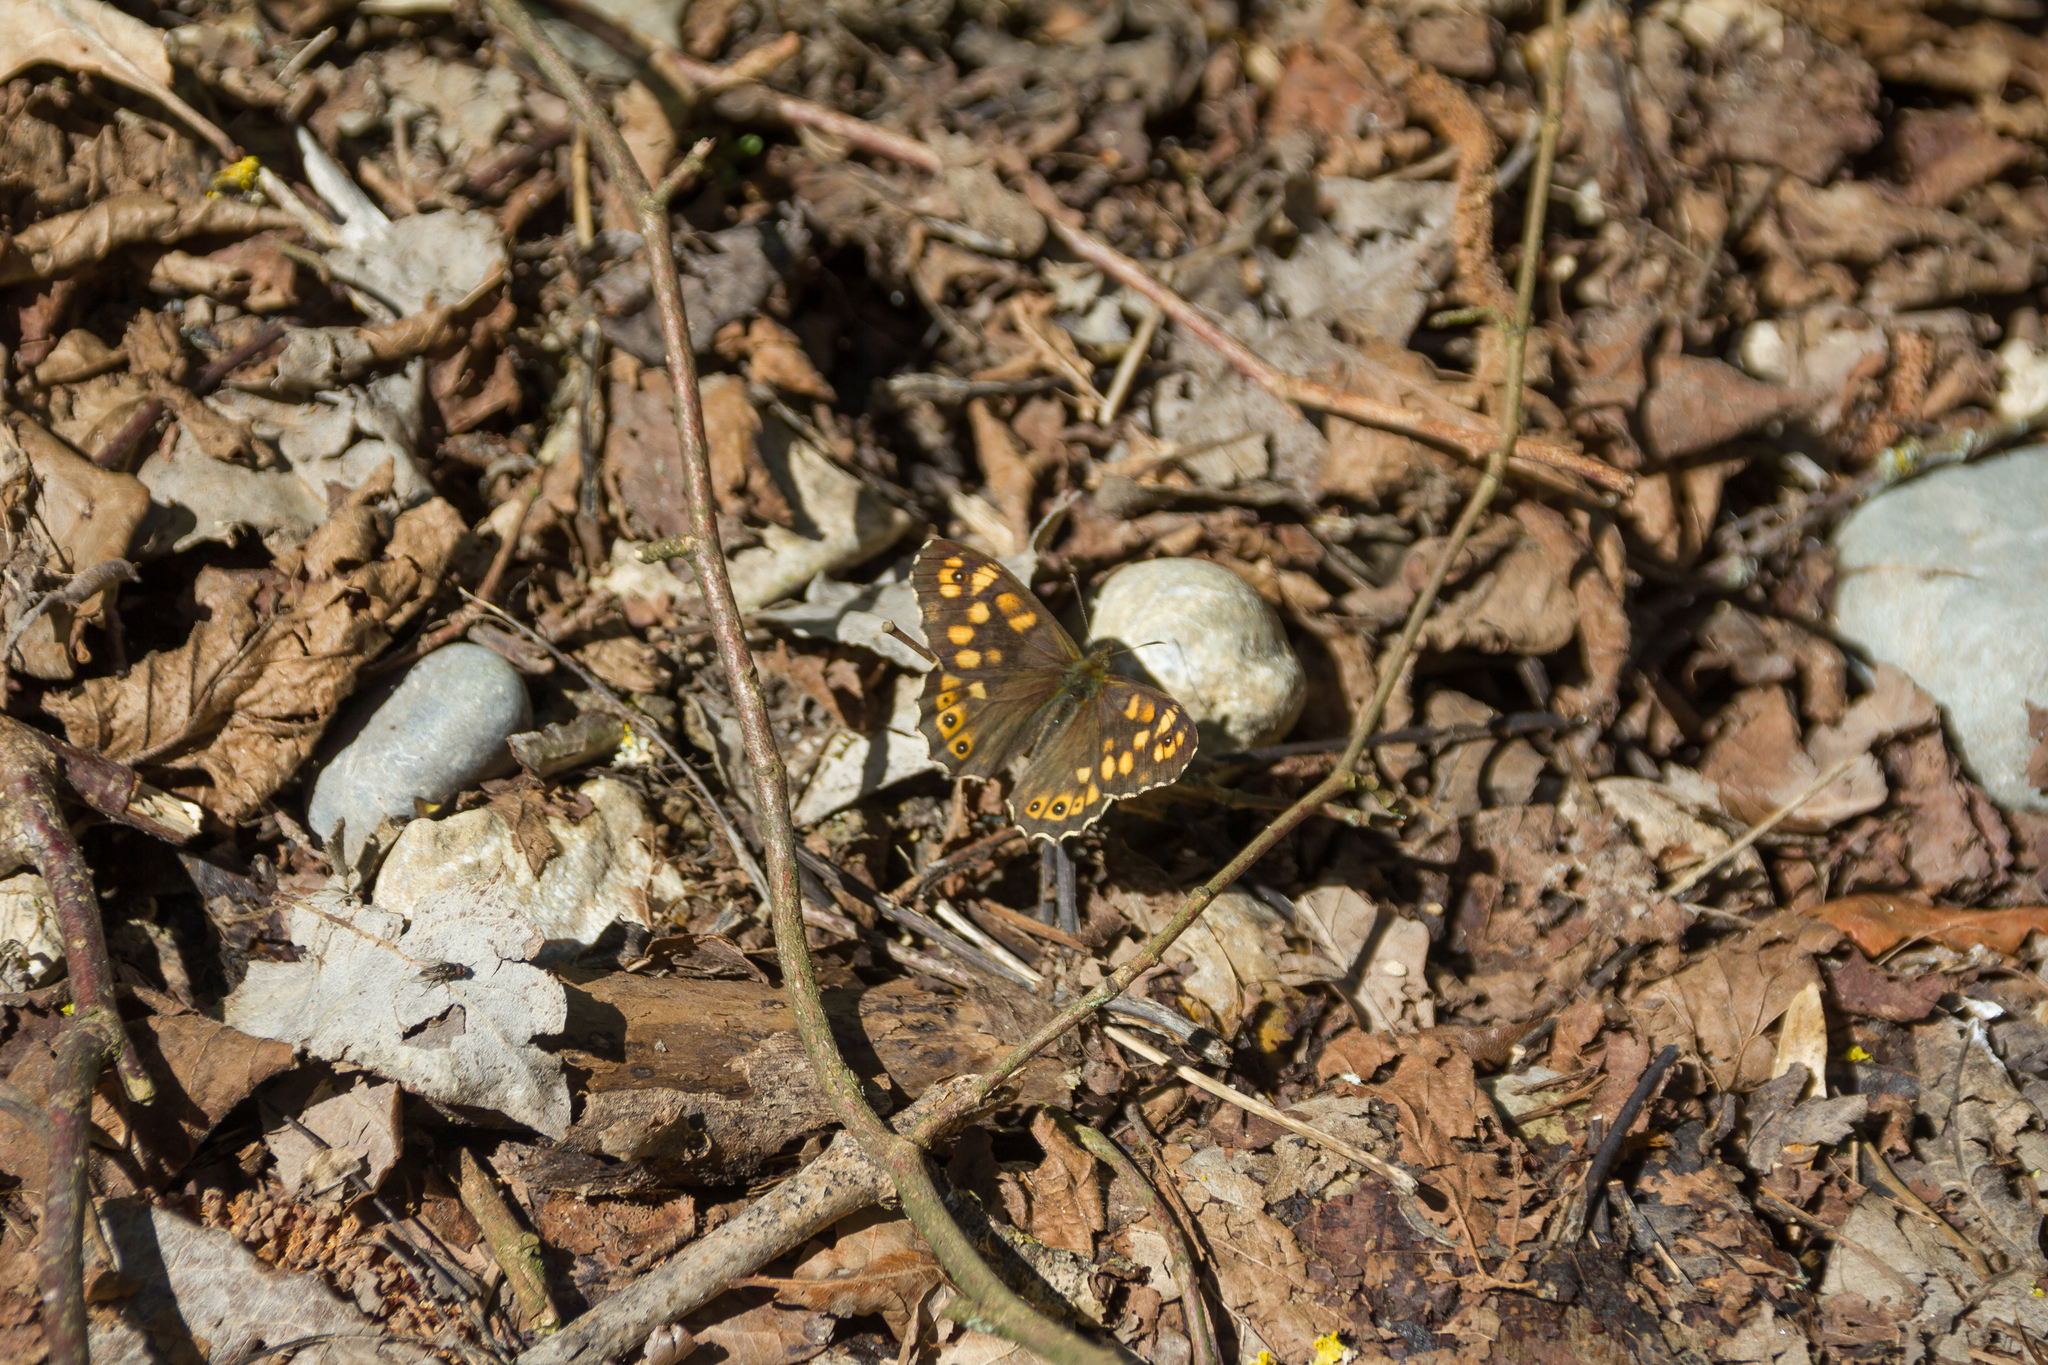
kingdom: Animalia
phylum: Arthropoda
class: Insecta
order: Lepidoptera
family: Nymphalidae
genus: Pararge
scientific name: Pararge aegeria
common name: Speckled wood
